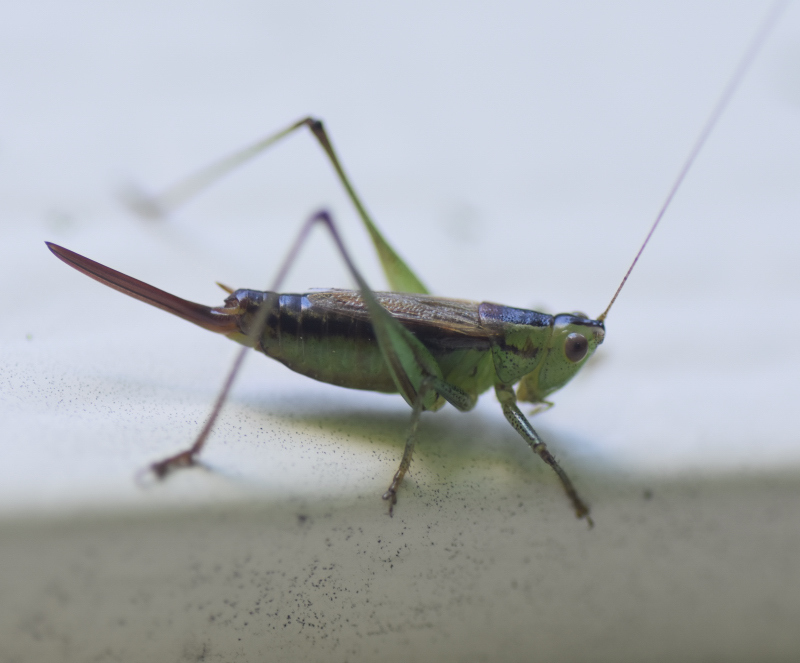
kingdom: Animalia
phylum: Arthropoda
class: Insecta
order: Orthoptera
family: Tettigoniidae
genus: Conocephalus
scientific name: Conocephalus brevipennis
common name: Short-winged meadow katydid
